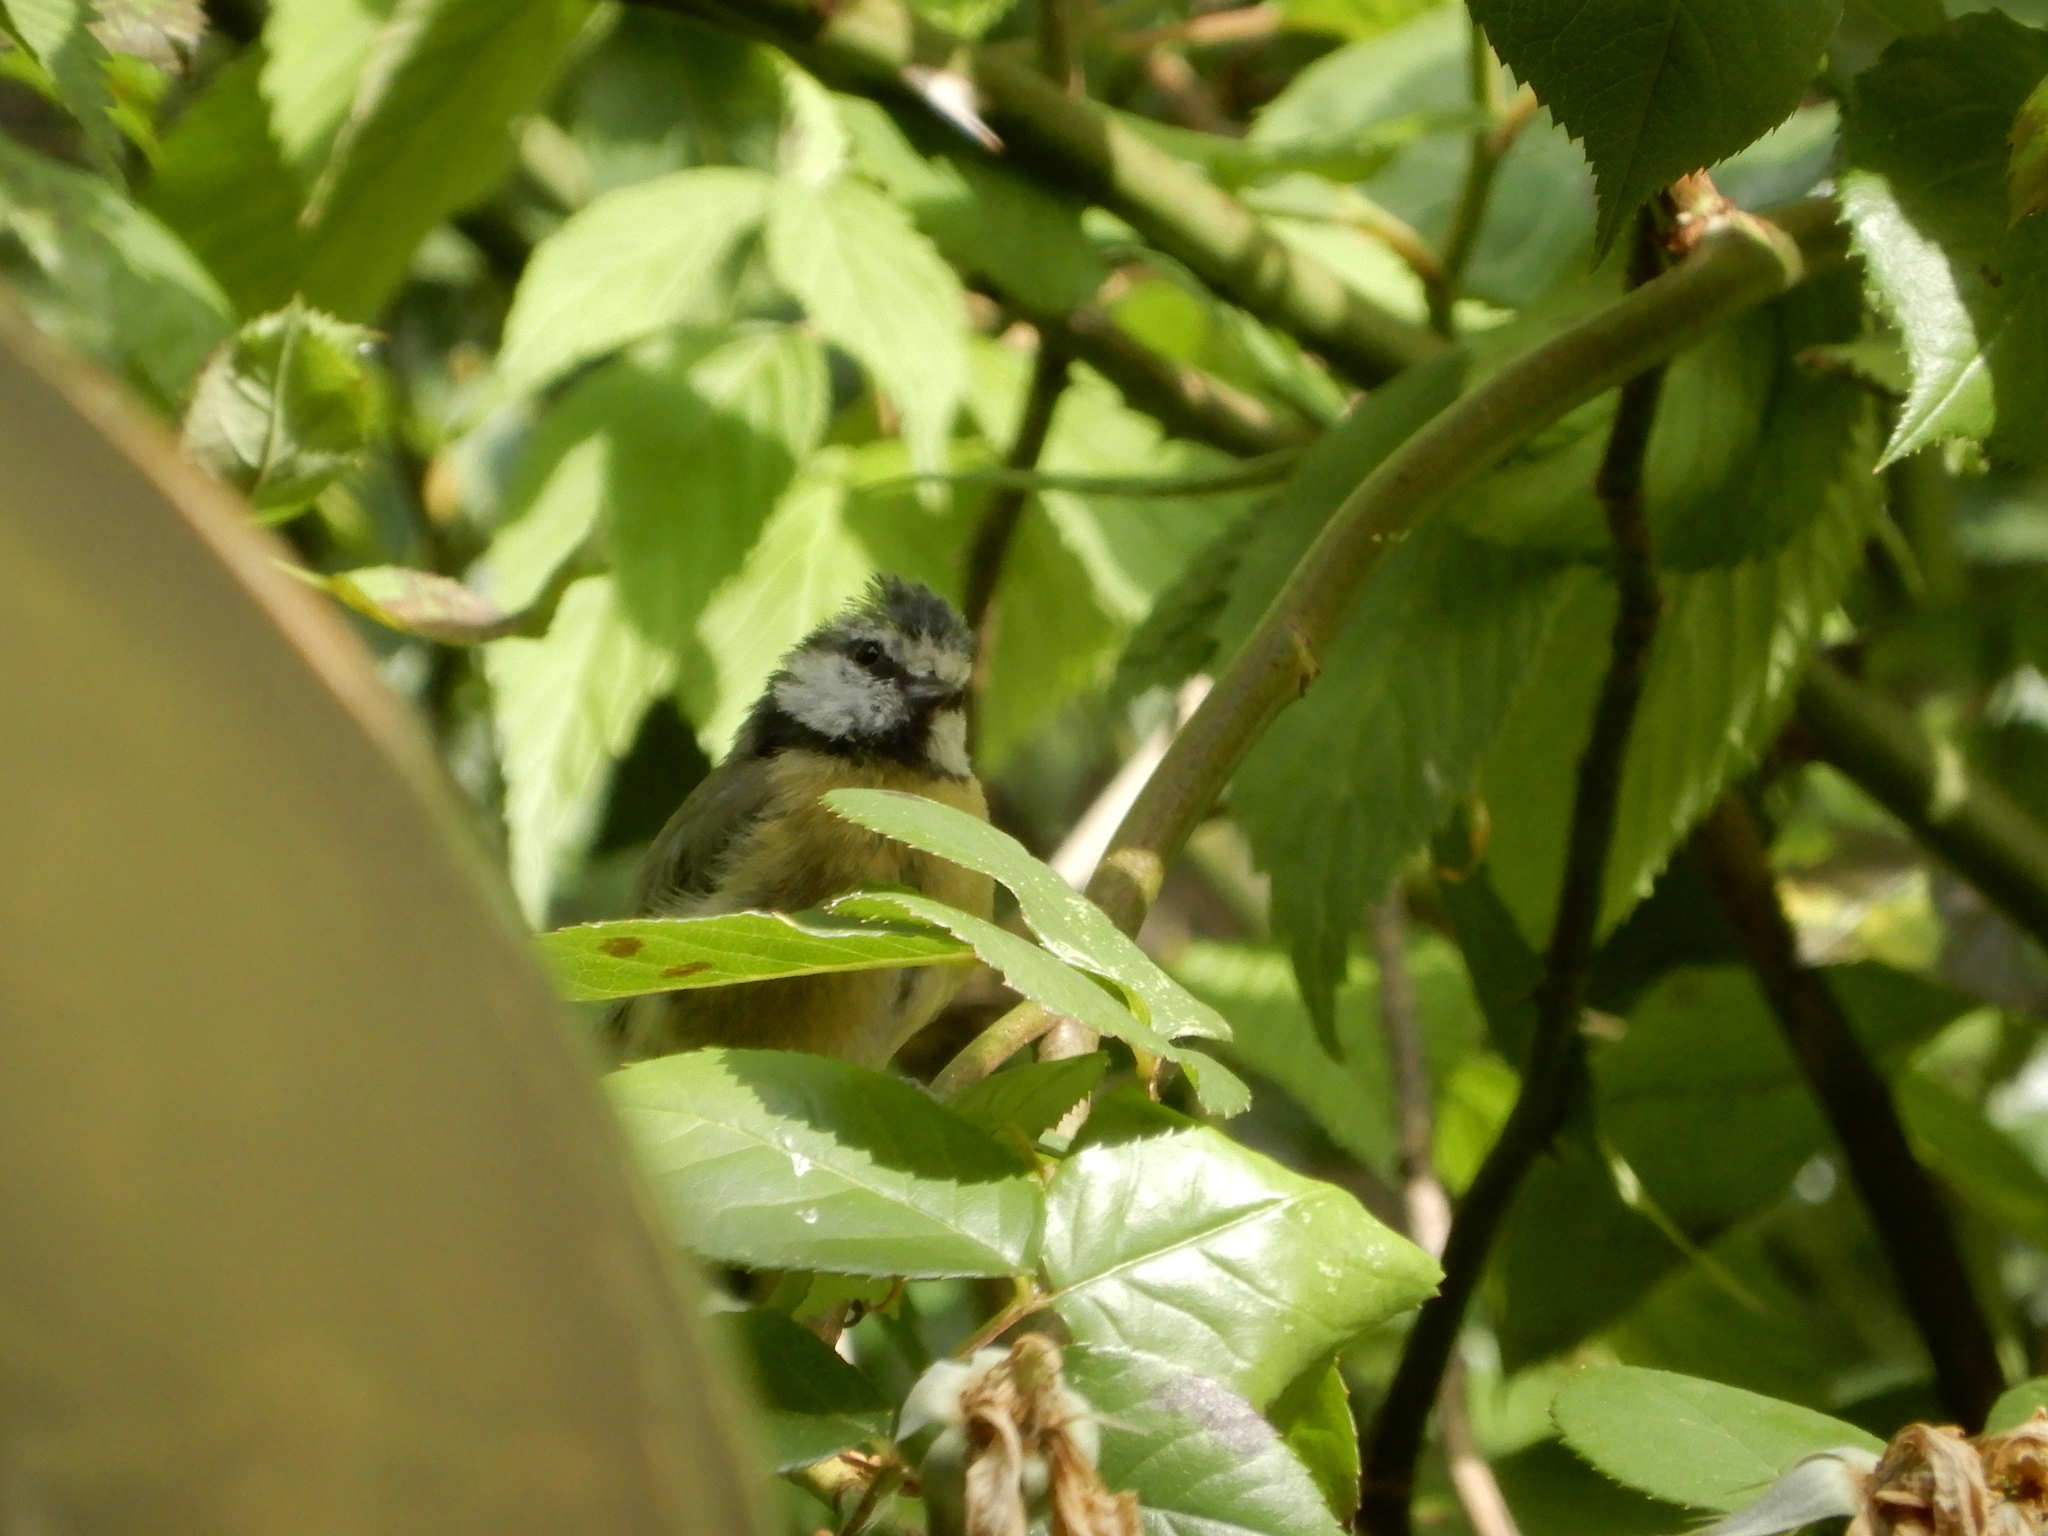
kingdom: Animalia
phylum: Chordata
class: Aves
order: Passeriformes
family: Paridae
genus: Cyanistes
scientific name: Cyanistes caeruleus
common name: Eurasian blue tit
